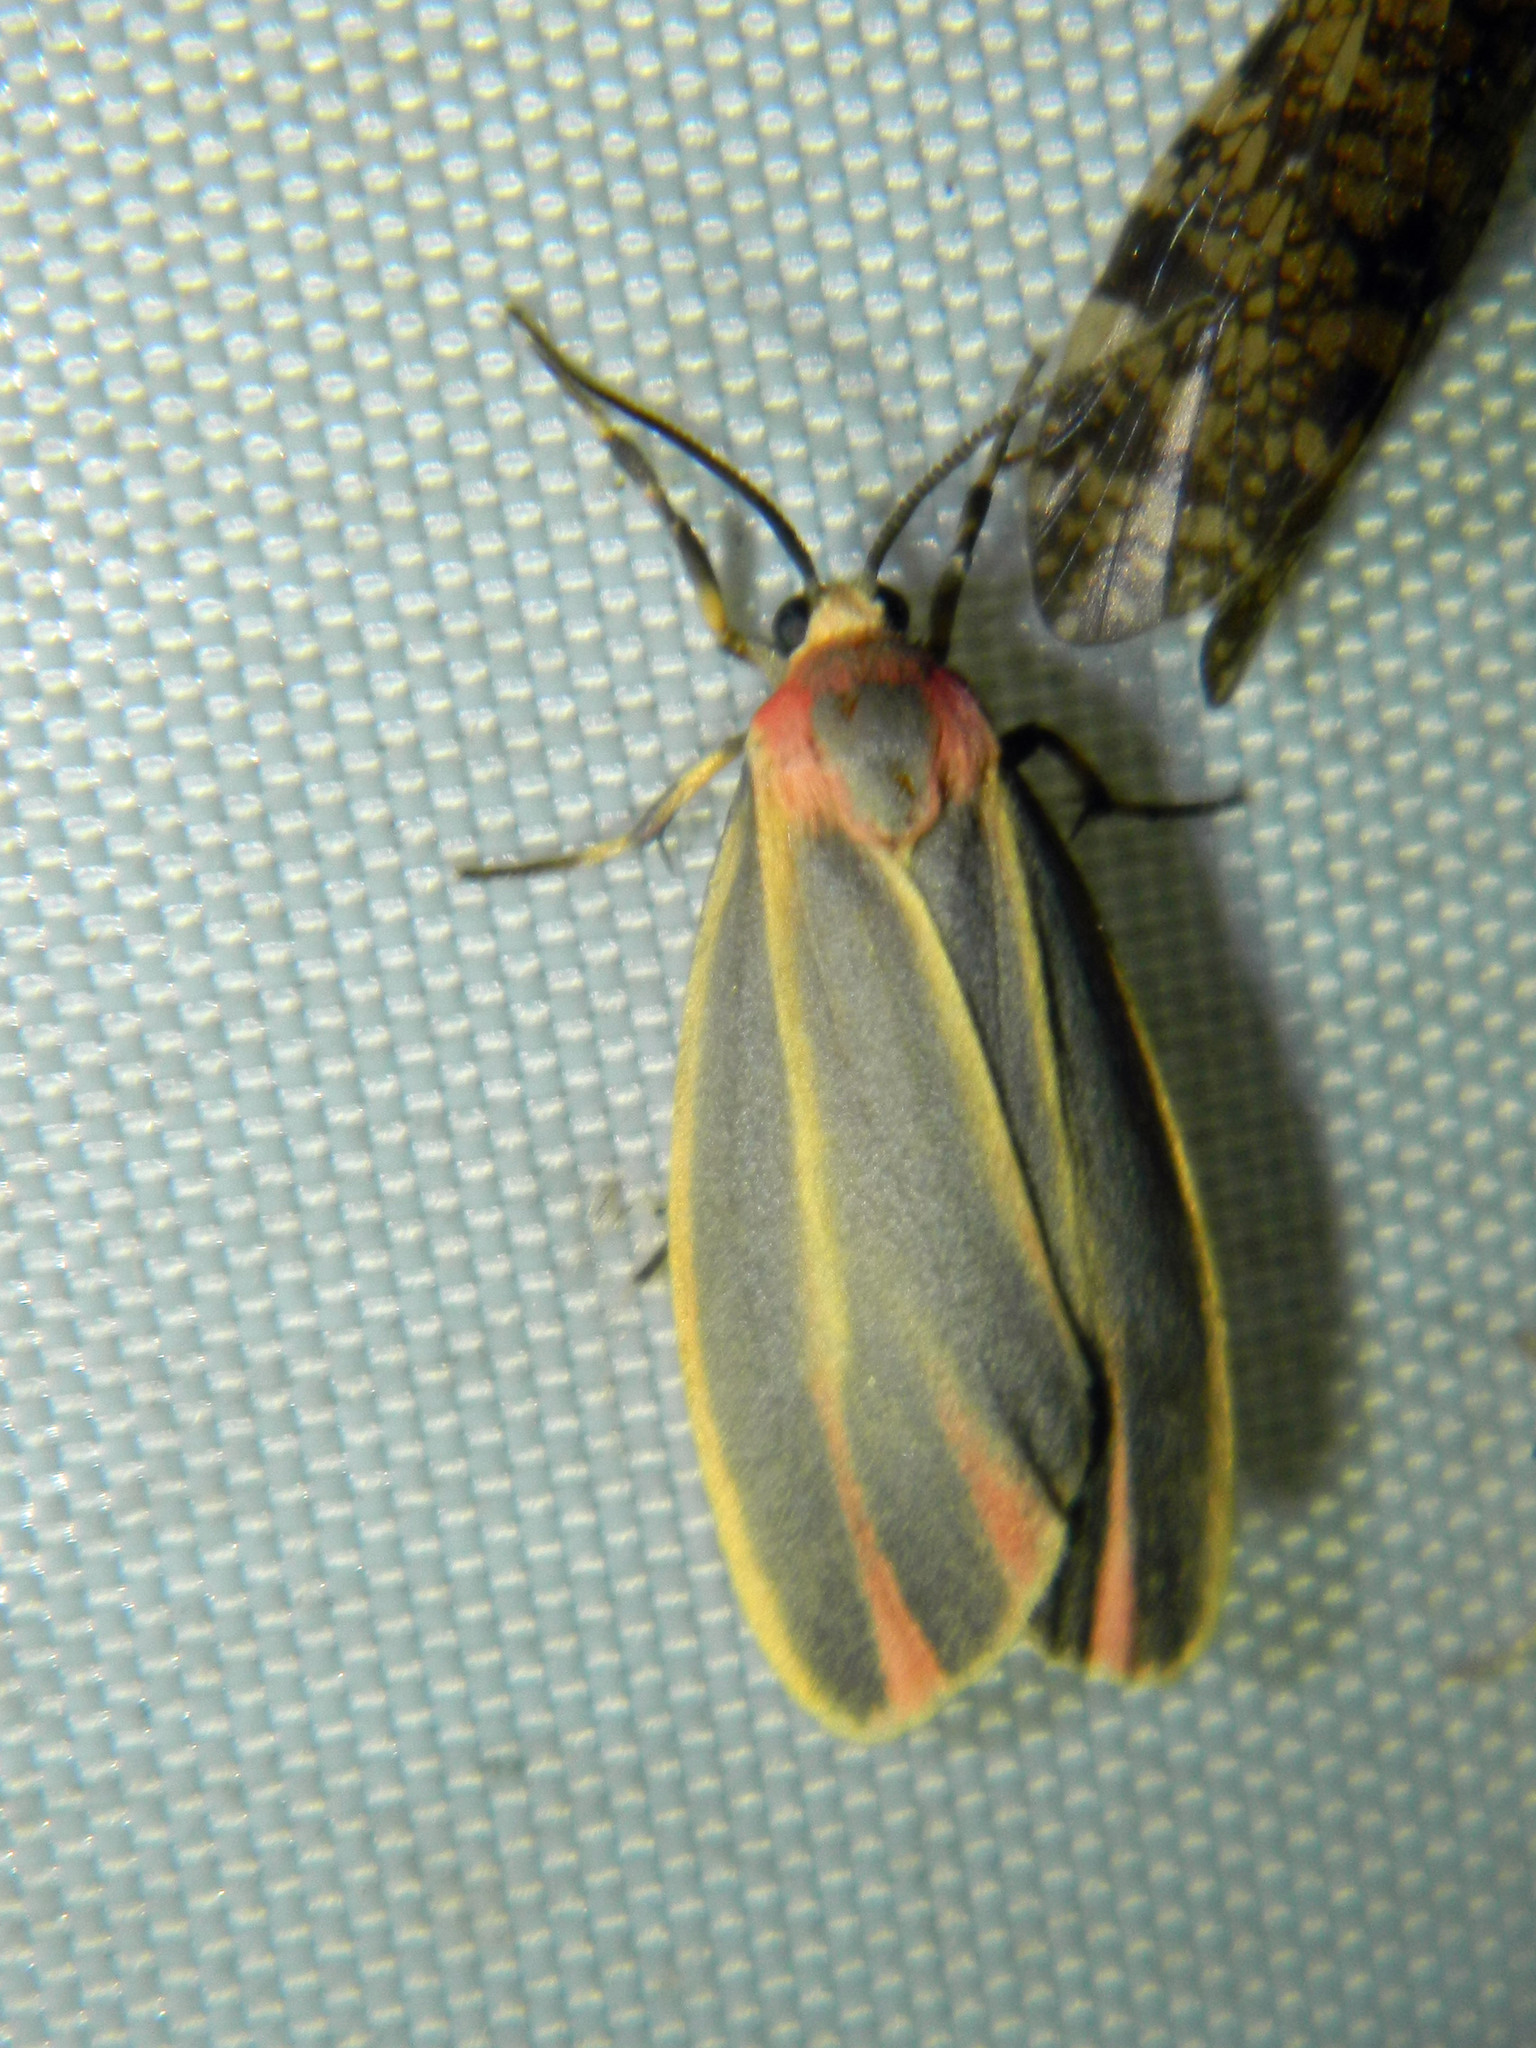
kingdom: Animalia
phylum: Arthropoda
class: Insecta
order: Lepidoptera
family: Erebidae
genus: Hypoprepia
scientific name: Hypoprepia fucosa
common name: Painted lichen moth
